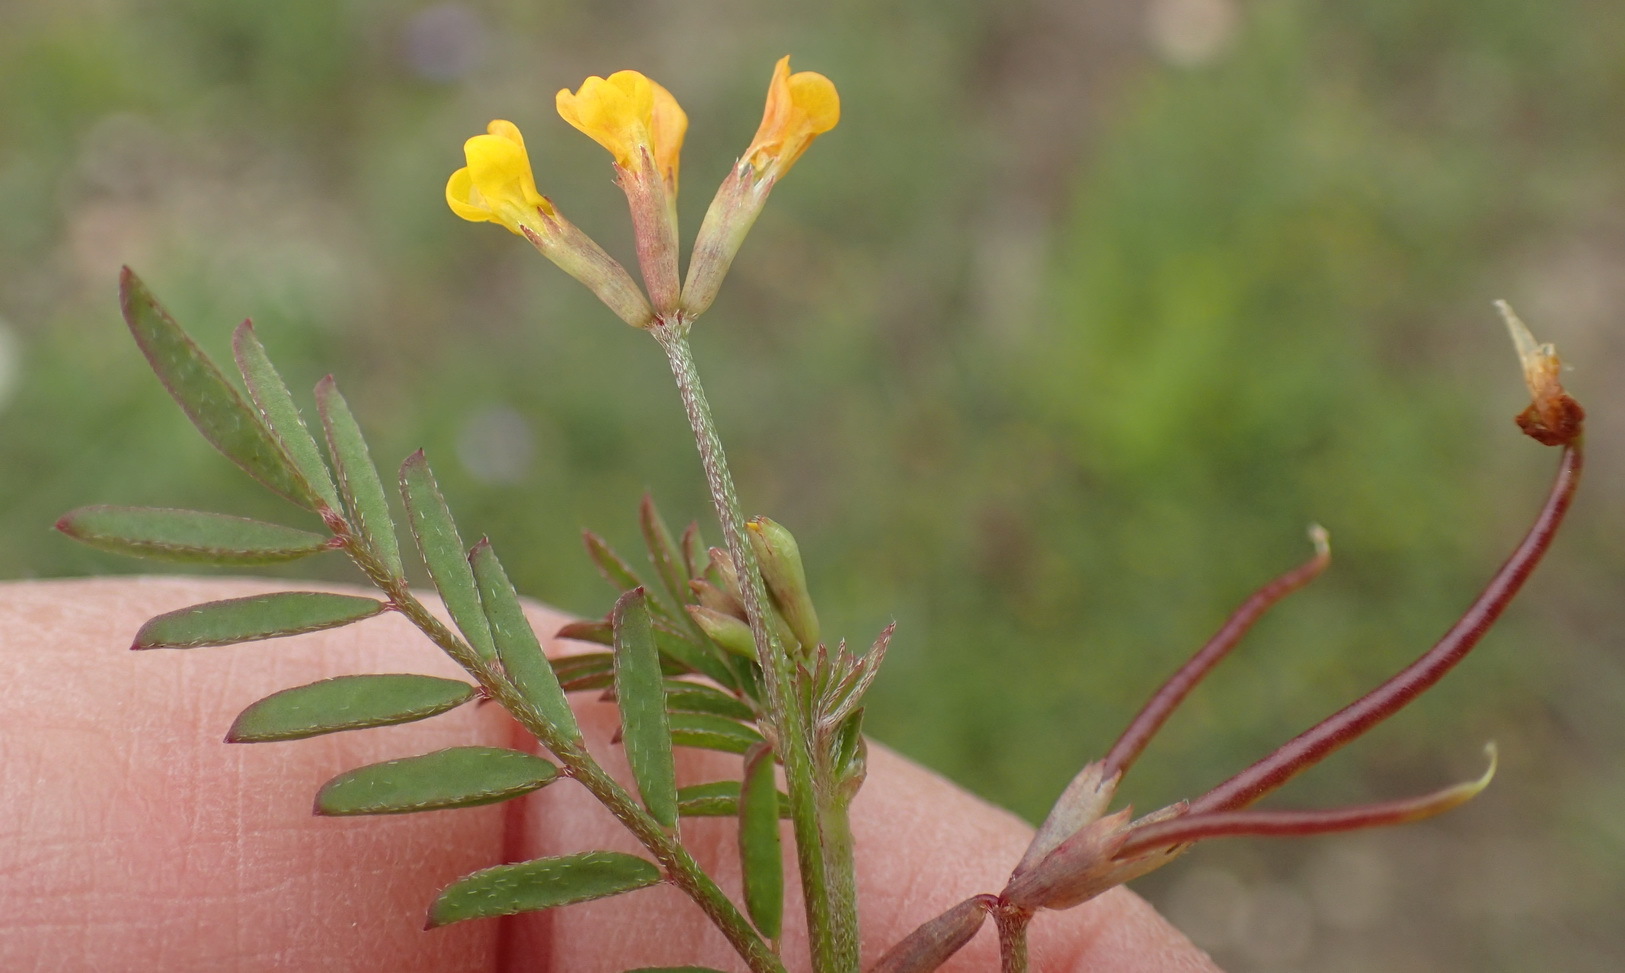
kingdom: Plantae
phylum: Tracheophyta
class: Magnoliopsida
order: Fabales
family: Fabaceae
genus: Ornithopus
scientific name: Ornithopus pinnatus
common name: Orange bird's-foot
